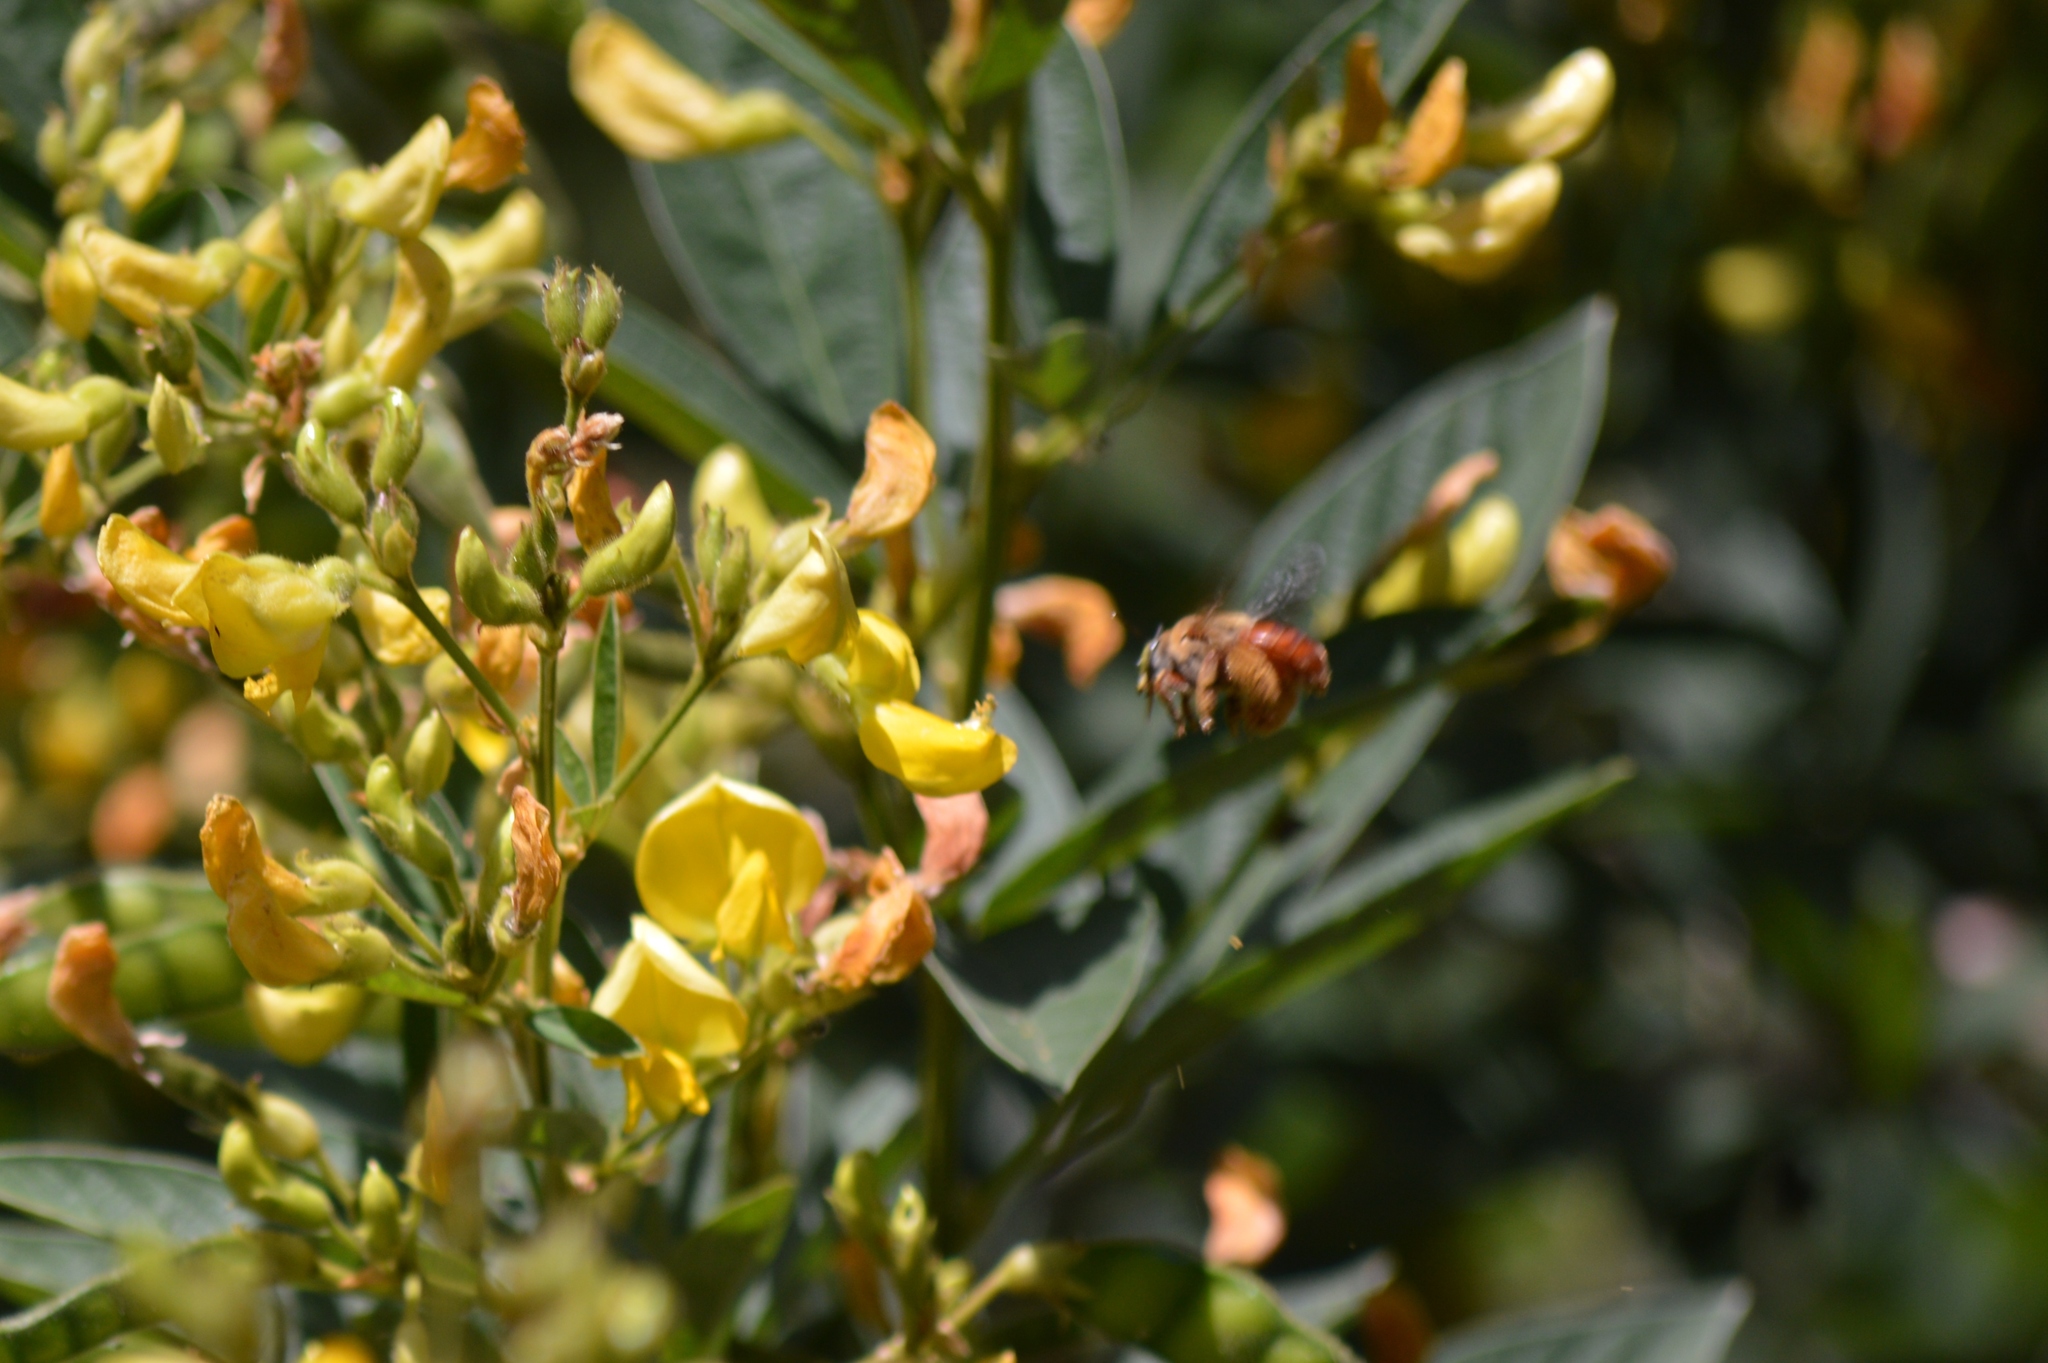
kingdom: Animalia
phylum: Arthropoda
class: Insecta
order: Hymenoptera
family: Apidae
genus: Centris
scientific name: Centris fuscata
